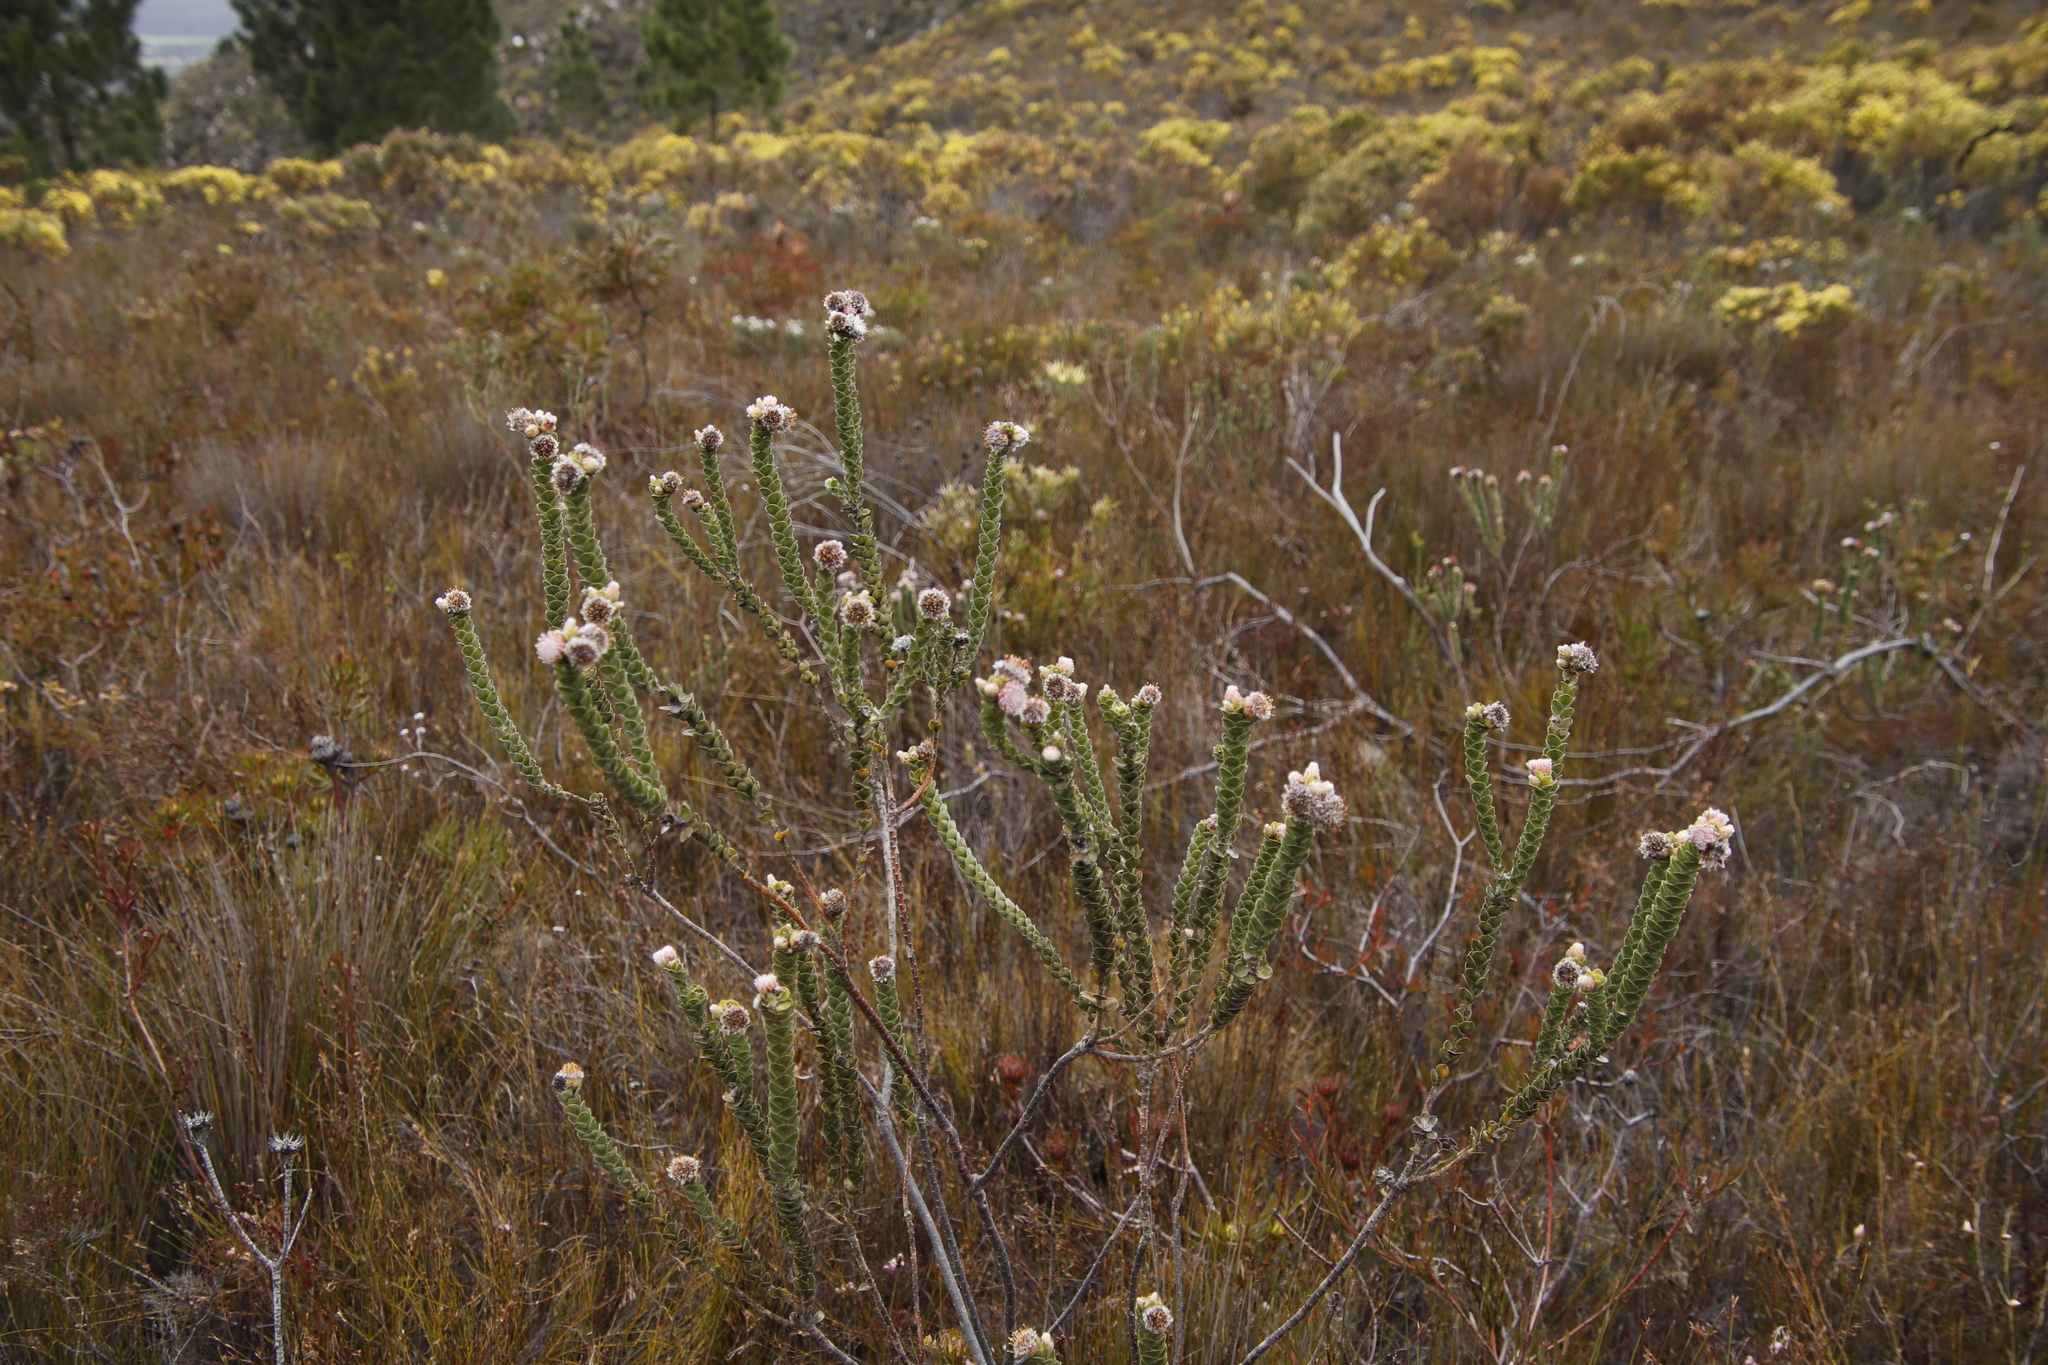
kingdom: Plantae
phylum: Tracheophyta
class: Magnoliopsida
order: Proteales
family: Proteaceae
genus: Leucospermum
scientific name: Leucospermum truncatulum
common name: Oval-leaf pincushion
